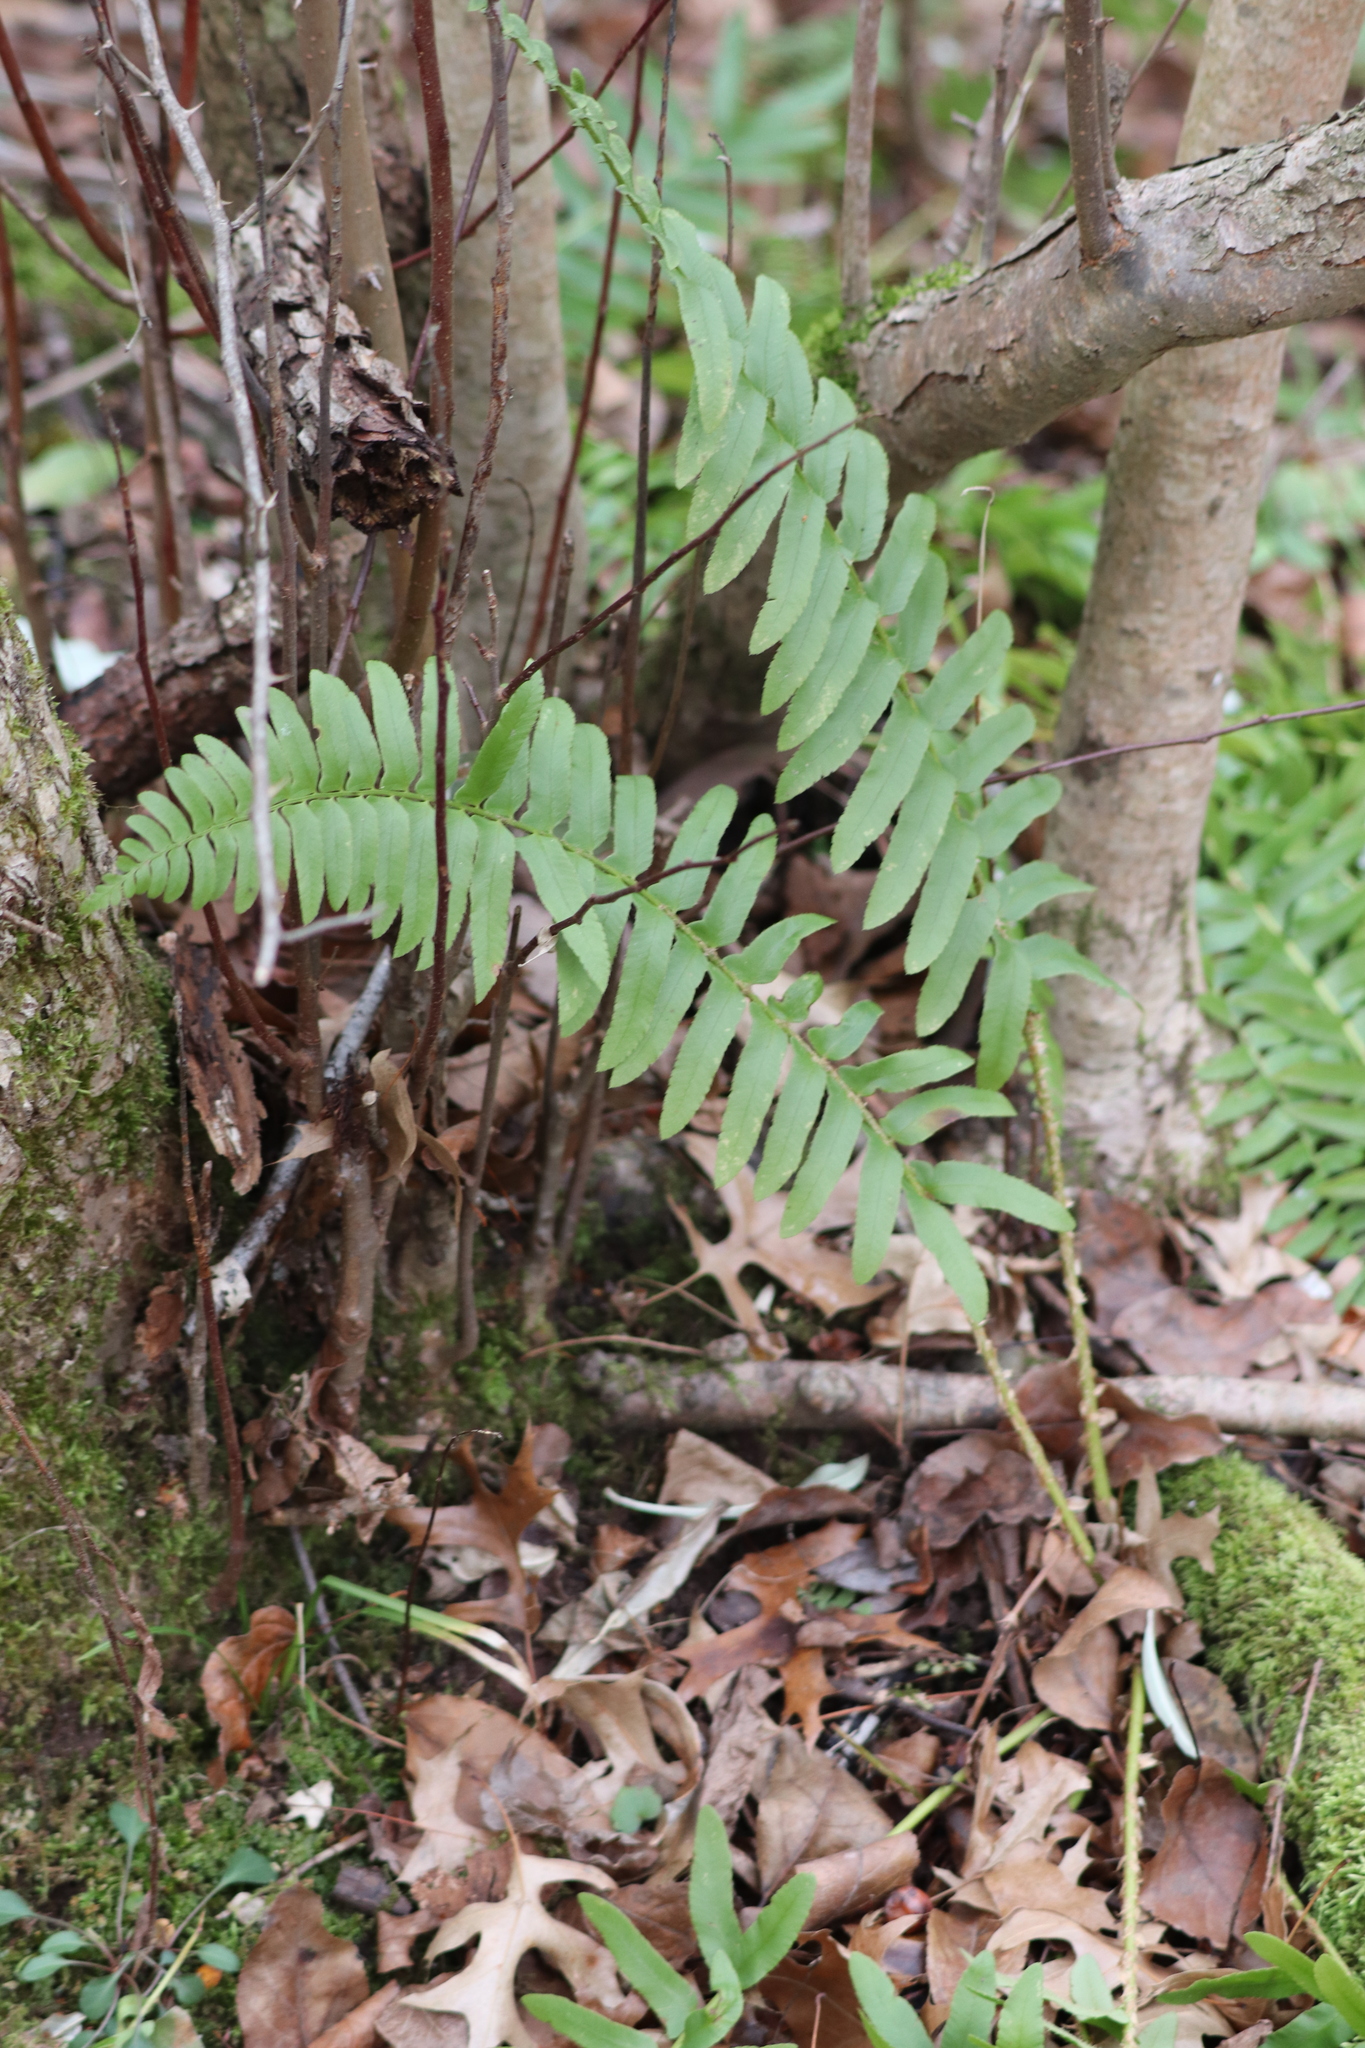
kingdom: Plantae
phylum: Tracheophyta
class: Polypodiopsida
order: Polypodiales
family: Dryopteridaceae
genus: Polystichum
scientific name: Polystichum acrostichoides
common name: Christmas fern
